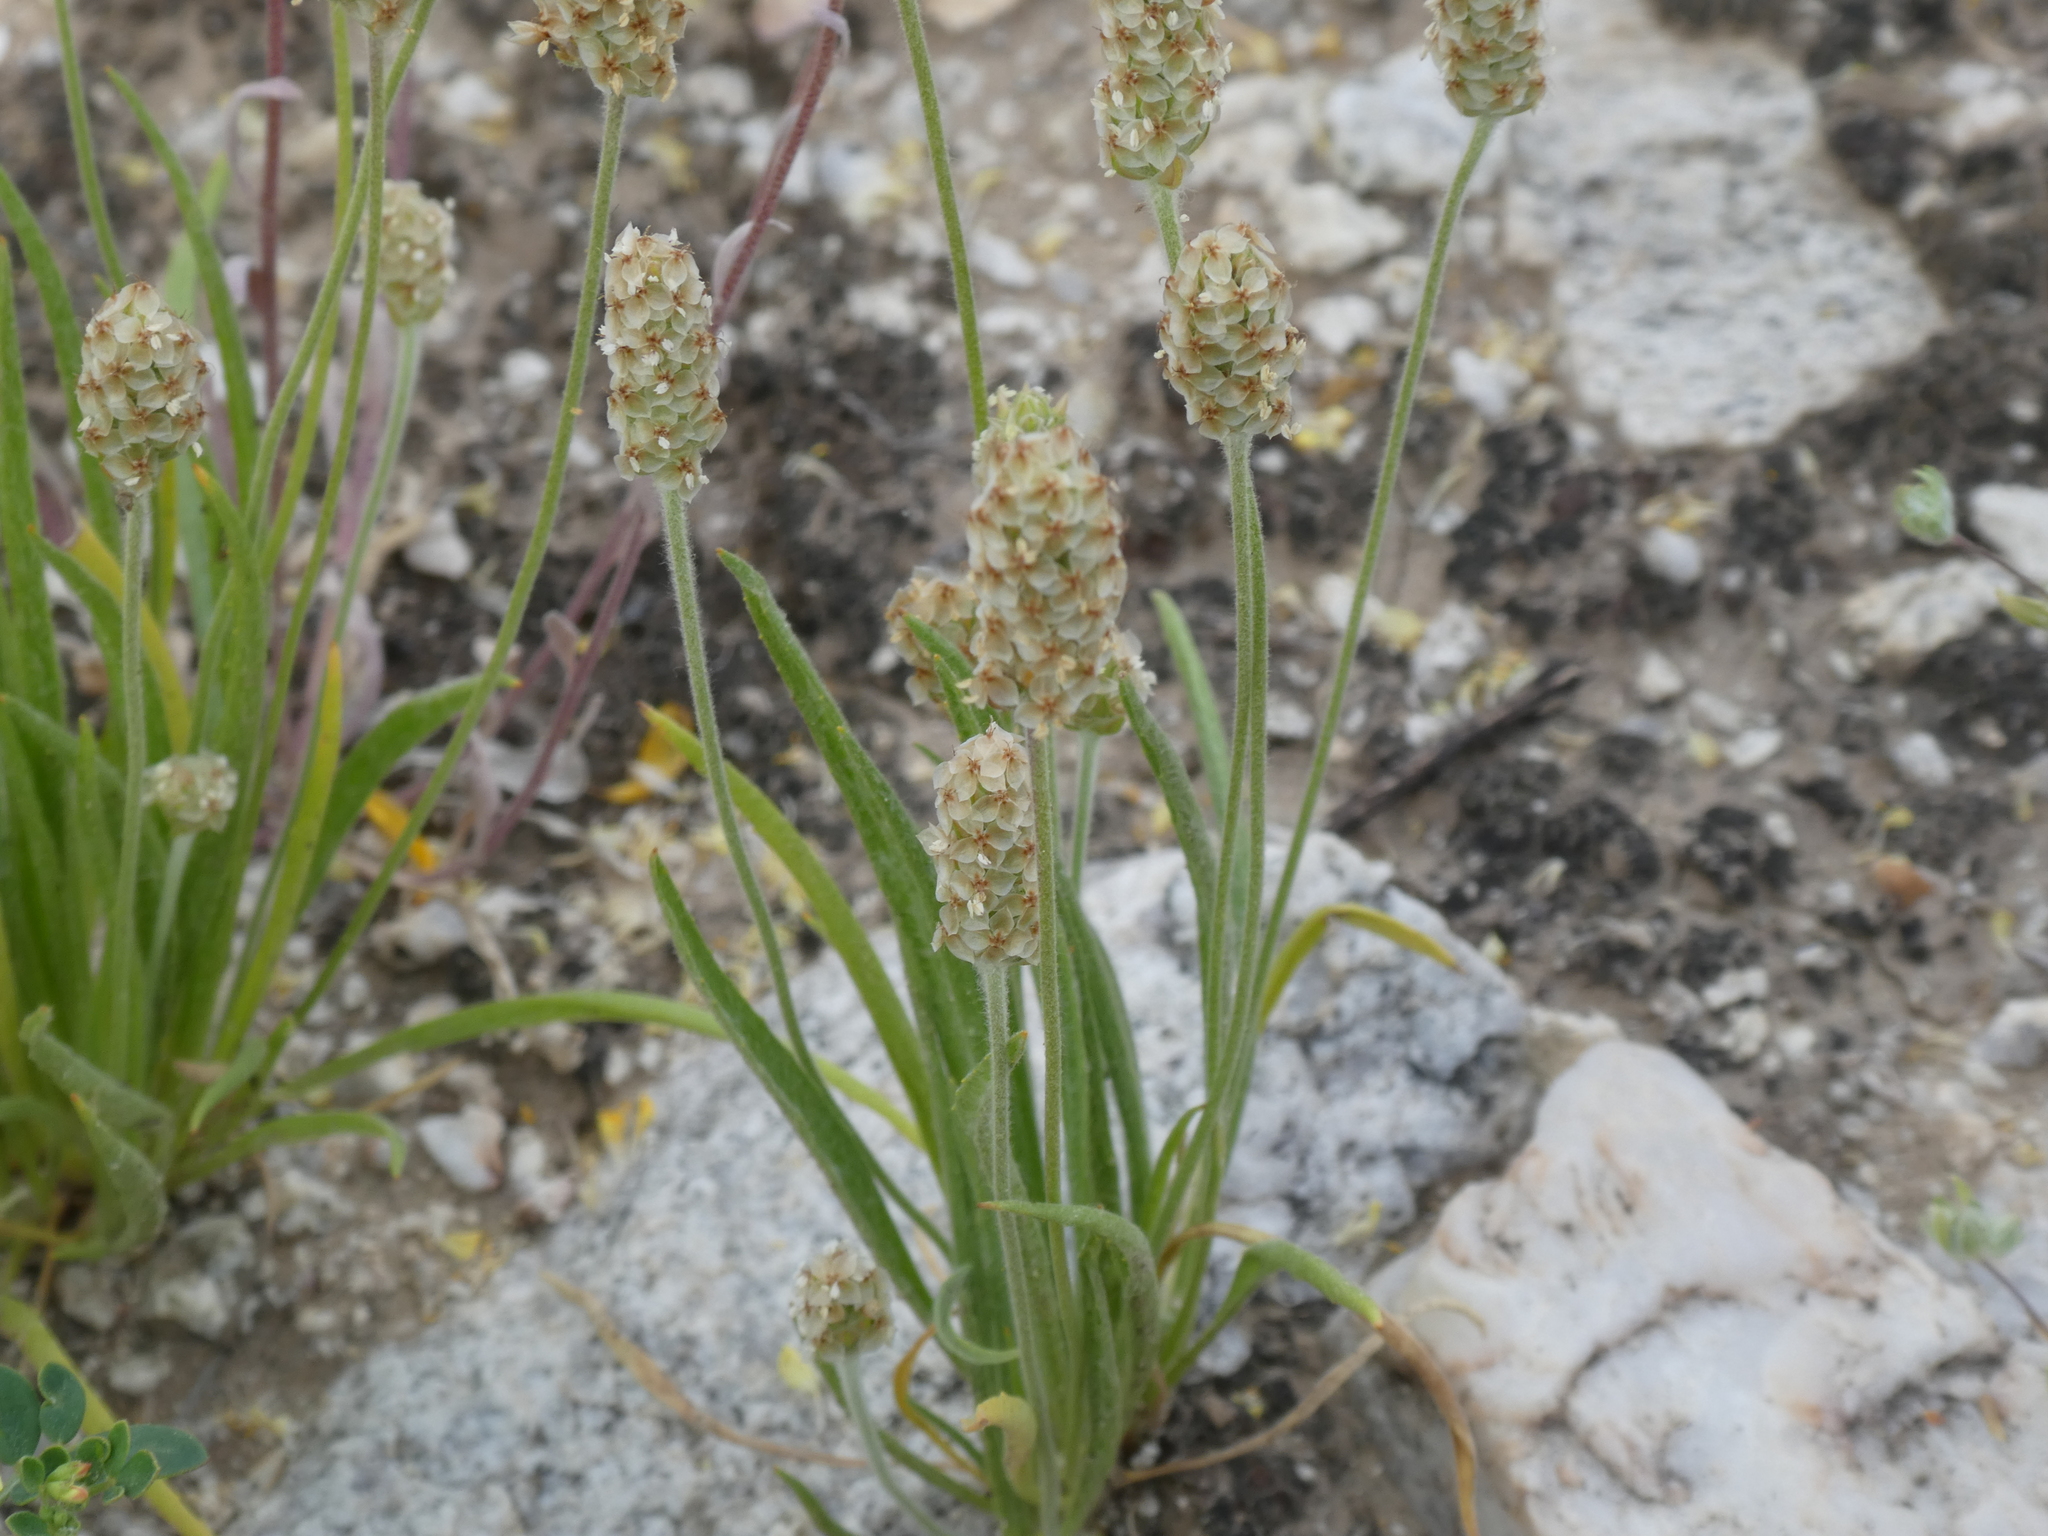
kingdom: Plantae
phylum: Tracheophyta
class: Magnoliopsida
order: Lamiales
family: Plantaginaceae
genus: Plantago
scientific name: Plantago ovata
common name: Blond plantain
